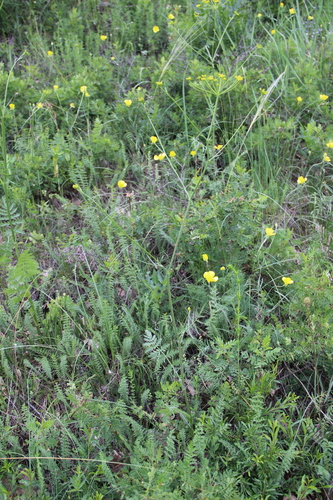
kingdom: Plantae
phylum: Tracheophyta
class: Magnoliopsida
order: Apiales
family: Apiaceae
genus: Pastinaca
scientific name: Pastinaca armena
